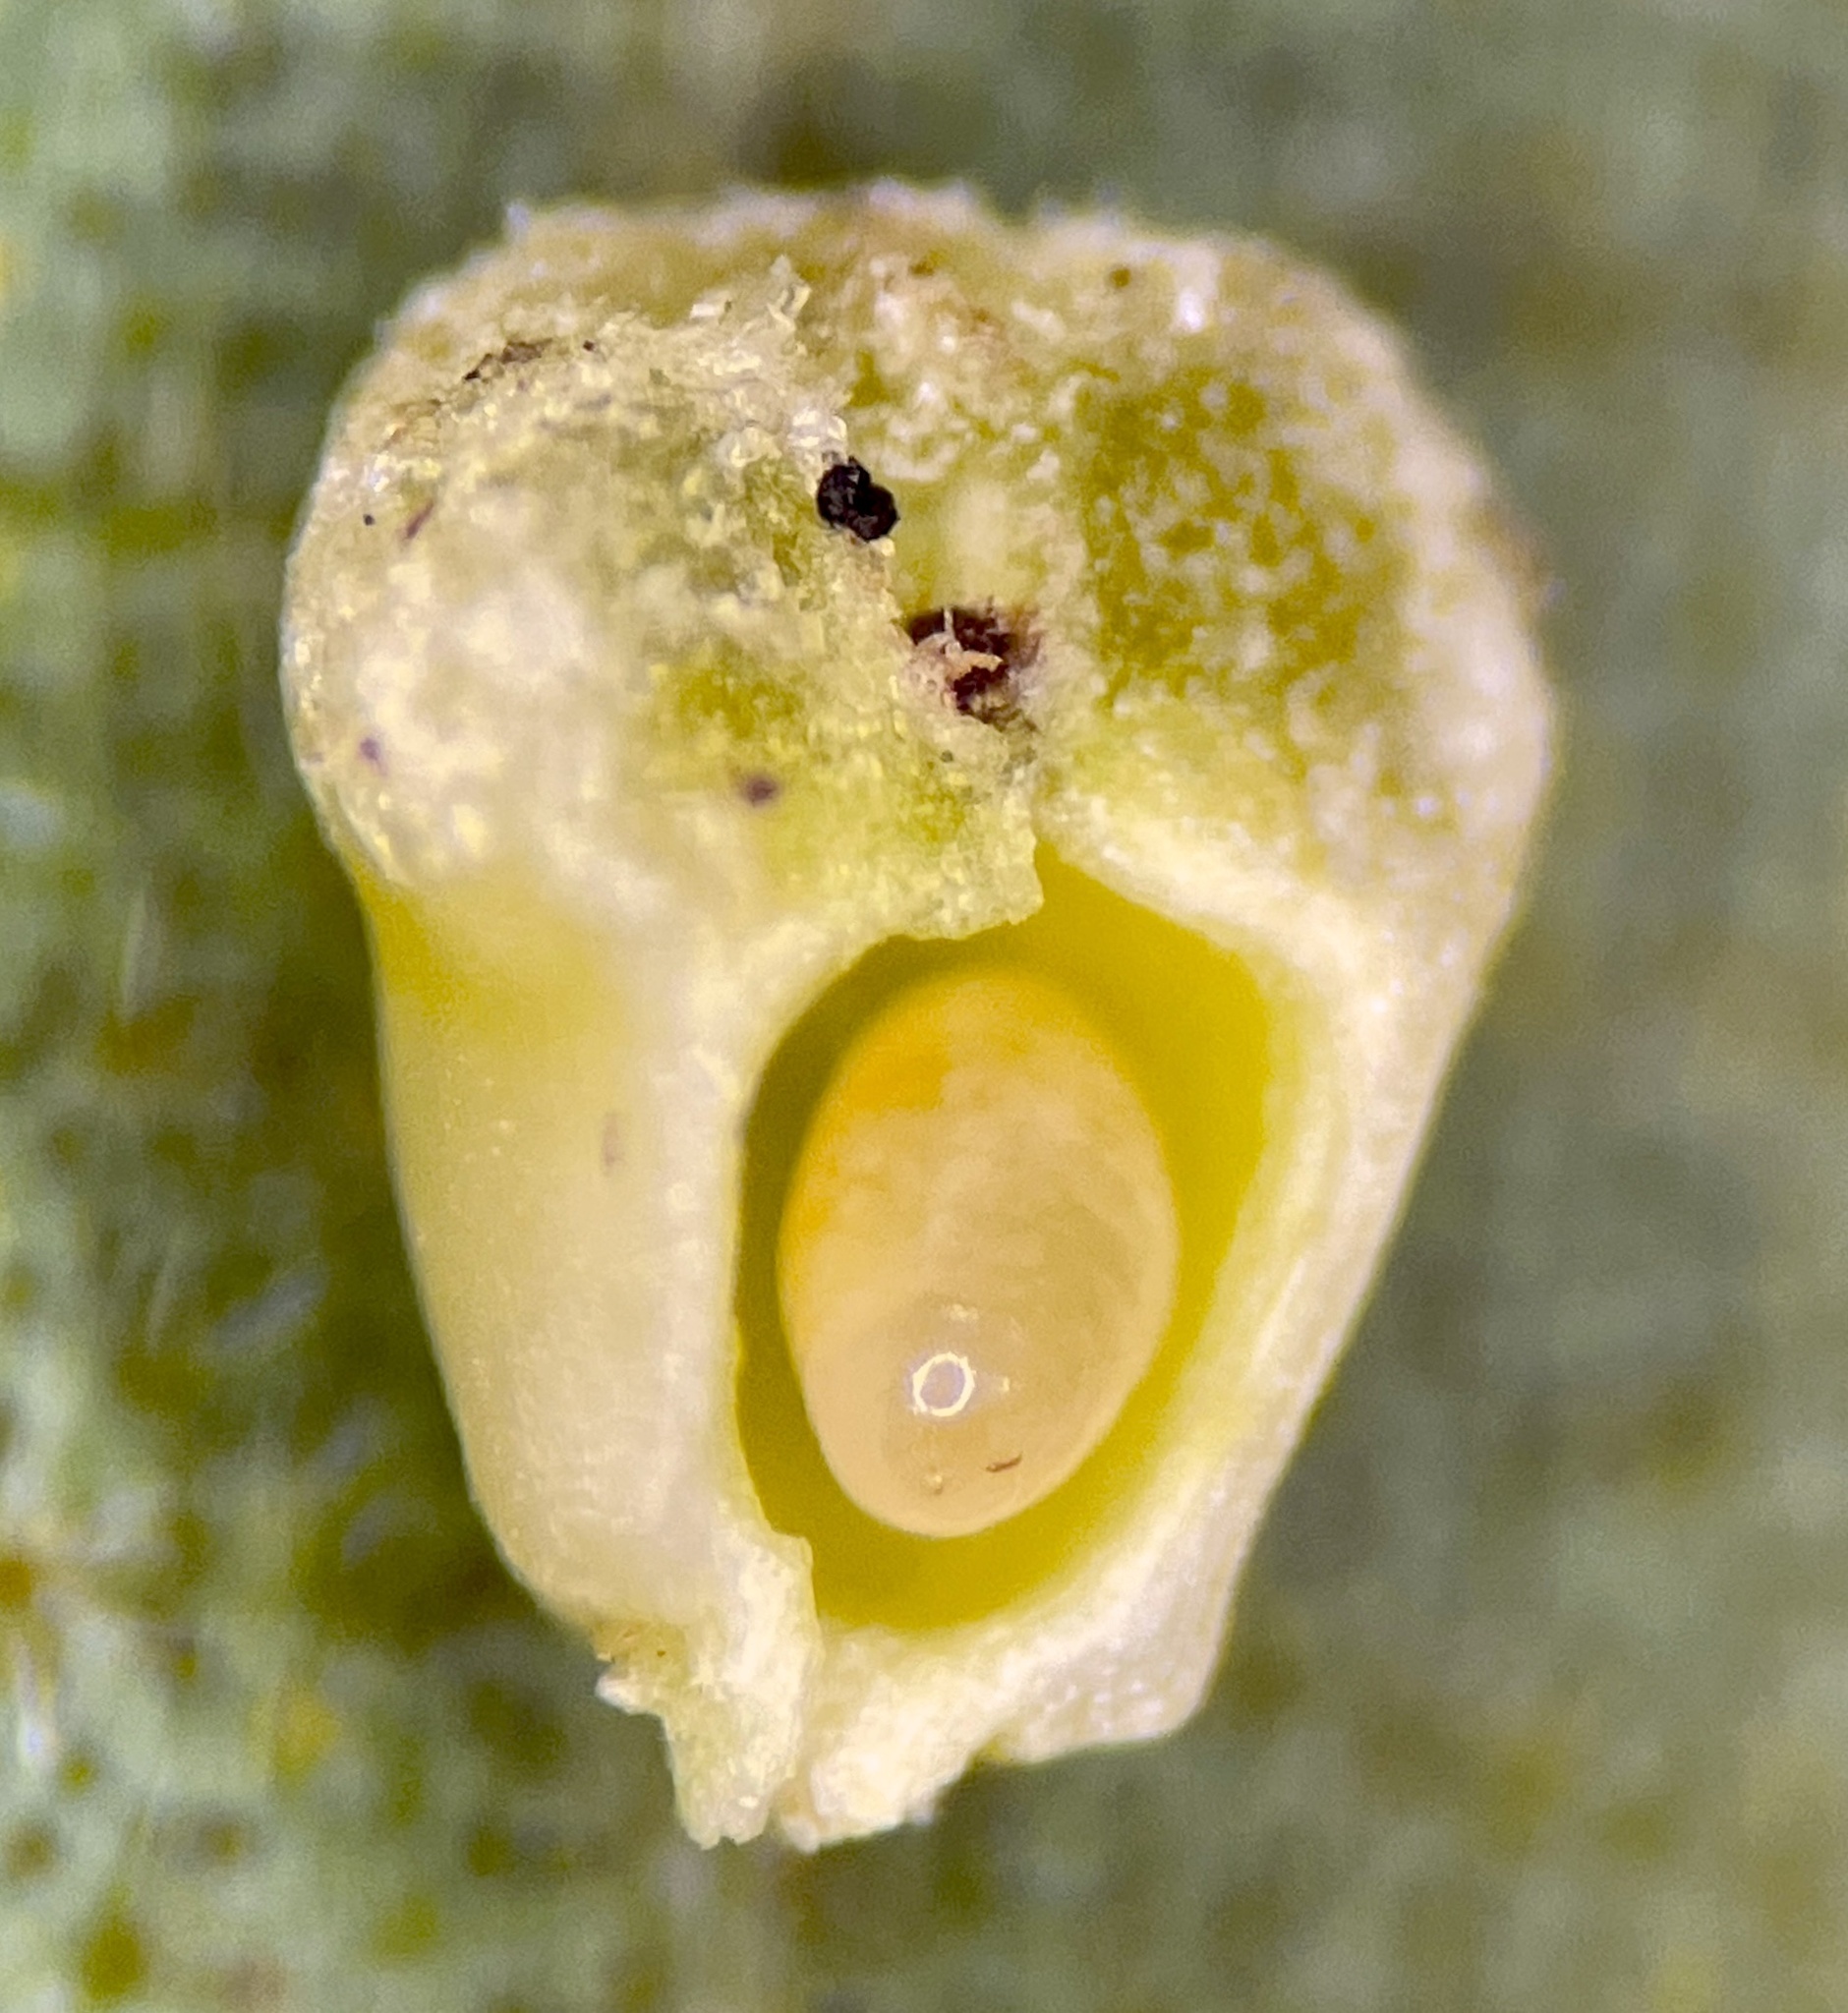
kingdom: Animalia
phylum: Arthropoda
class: Insecta
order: Diptera
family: Cecidomyiidae
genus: Caryomyia
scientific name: Caryomyia striolacrustum
